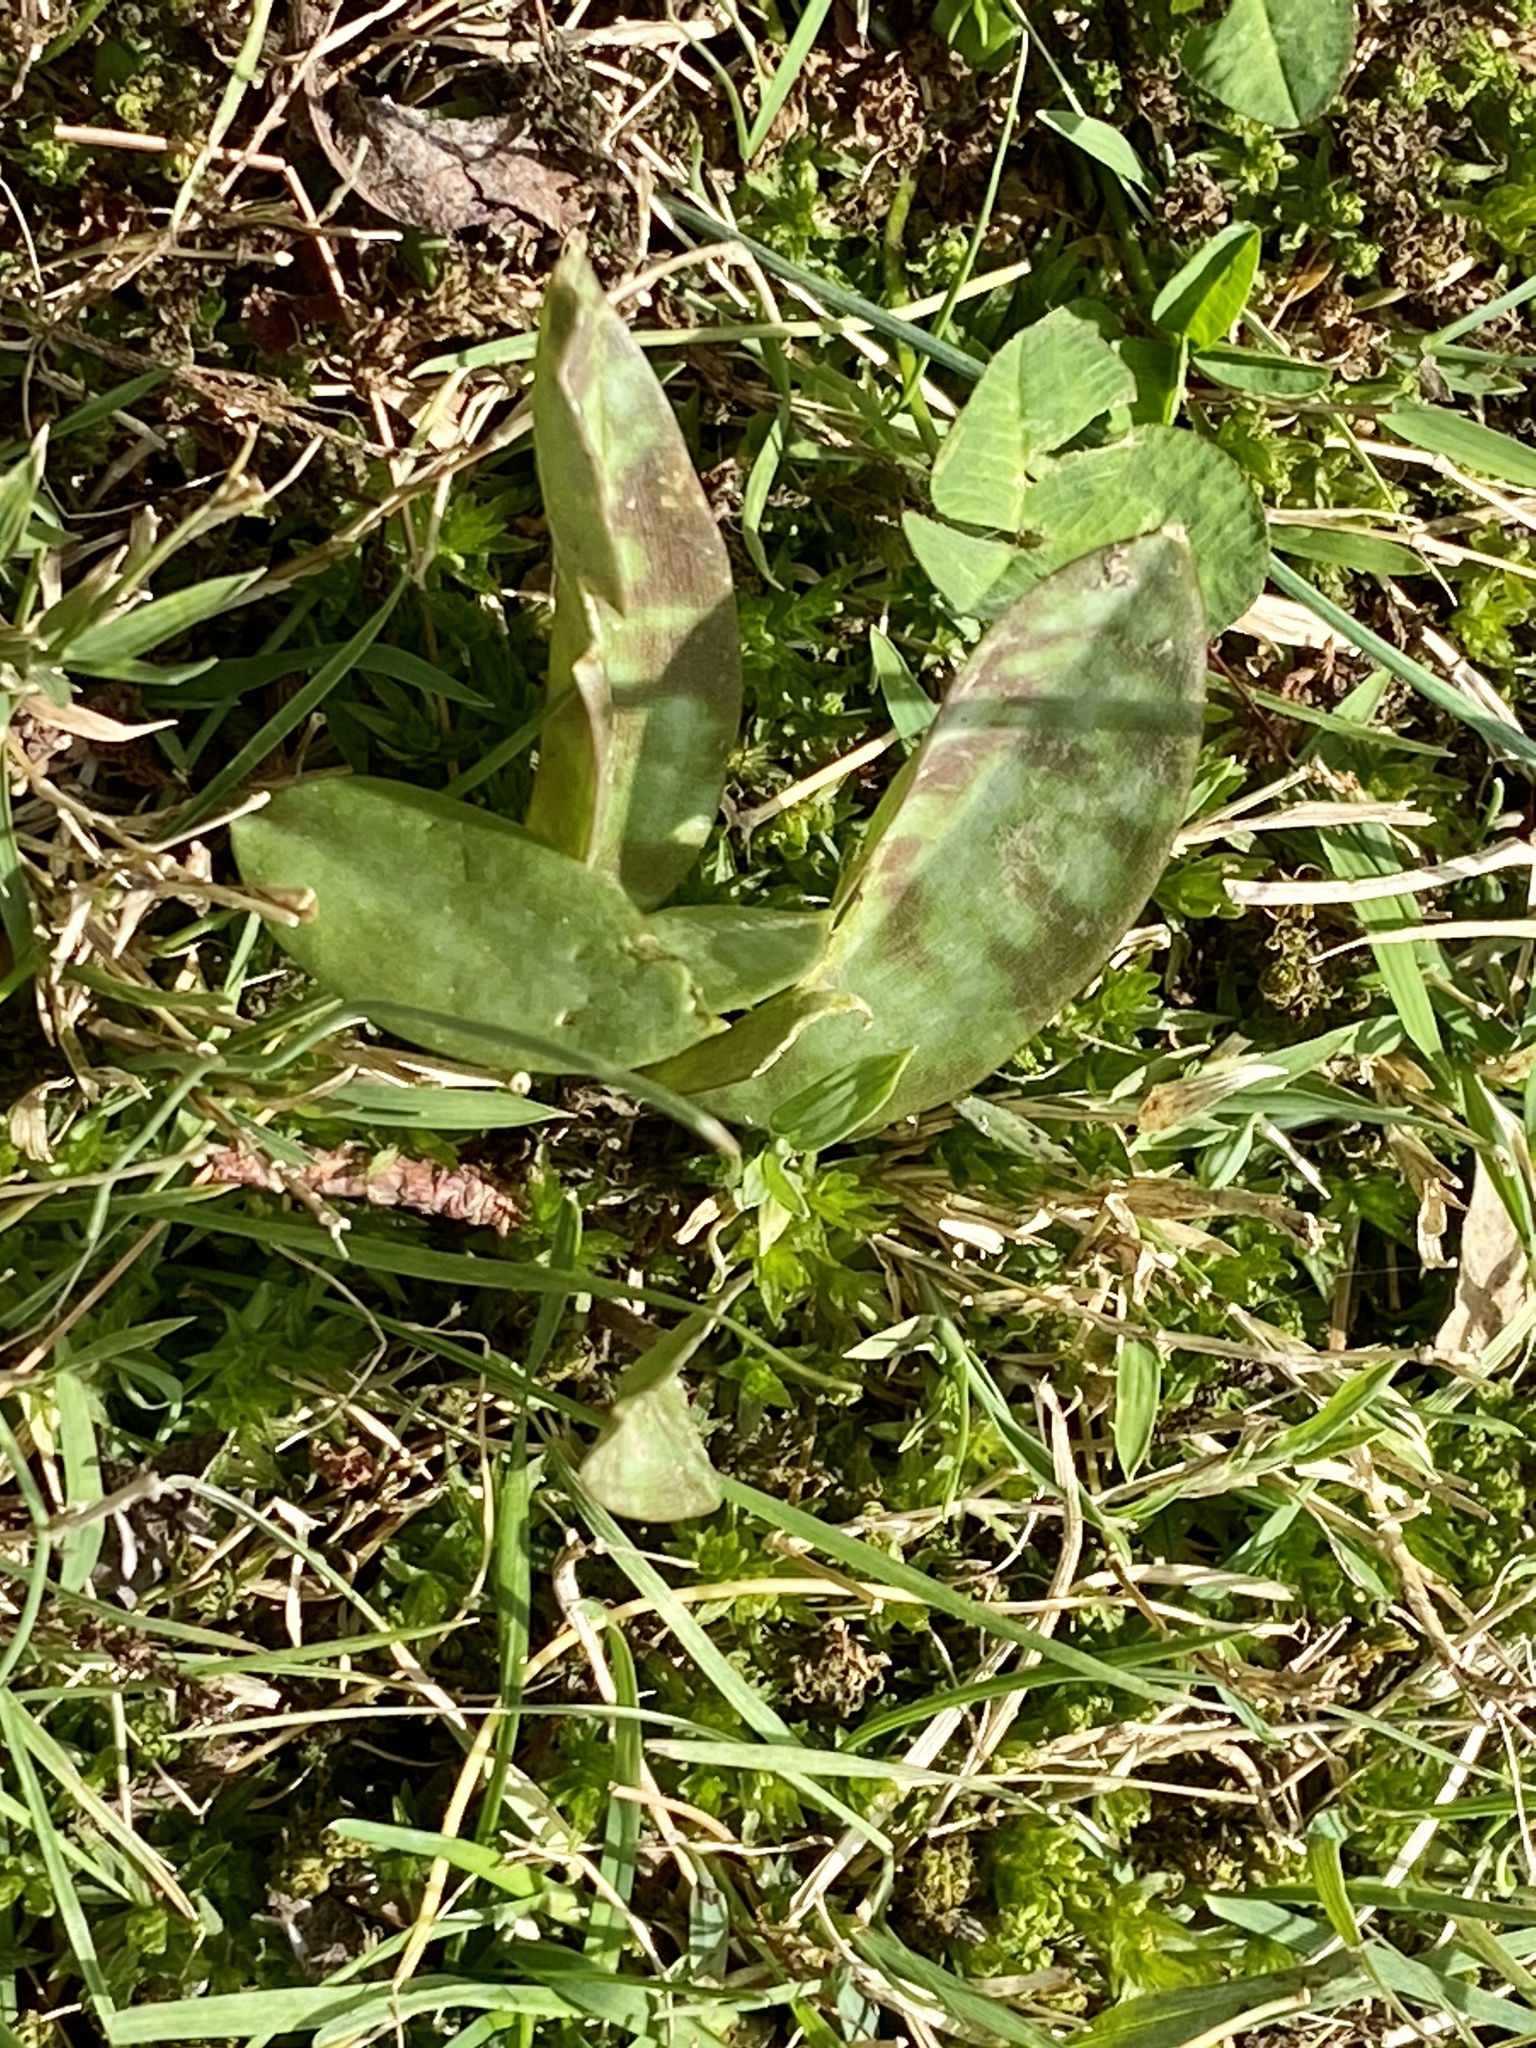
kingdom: Plantae
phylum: Tracheophyta
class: Liliopsida
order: Liliales
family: Liliaceae
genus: Erythronium
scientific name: Erythronium americanum
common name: Yellow adder's-tongue
